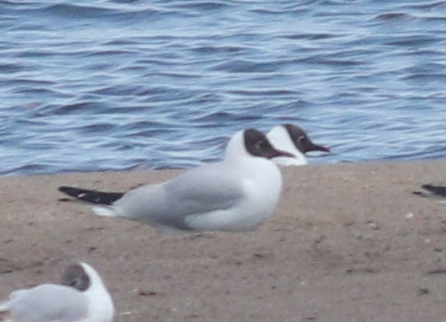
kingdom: Animalia
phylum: Chordata
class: Aves
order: Charadriiformes
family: Laridae
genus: Chroicocephalus
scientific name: Chroicocephalus ridibundus
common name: Black-headed gull
